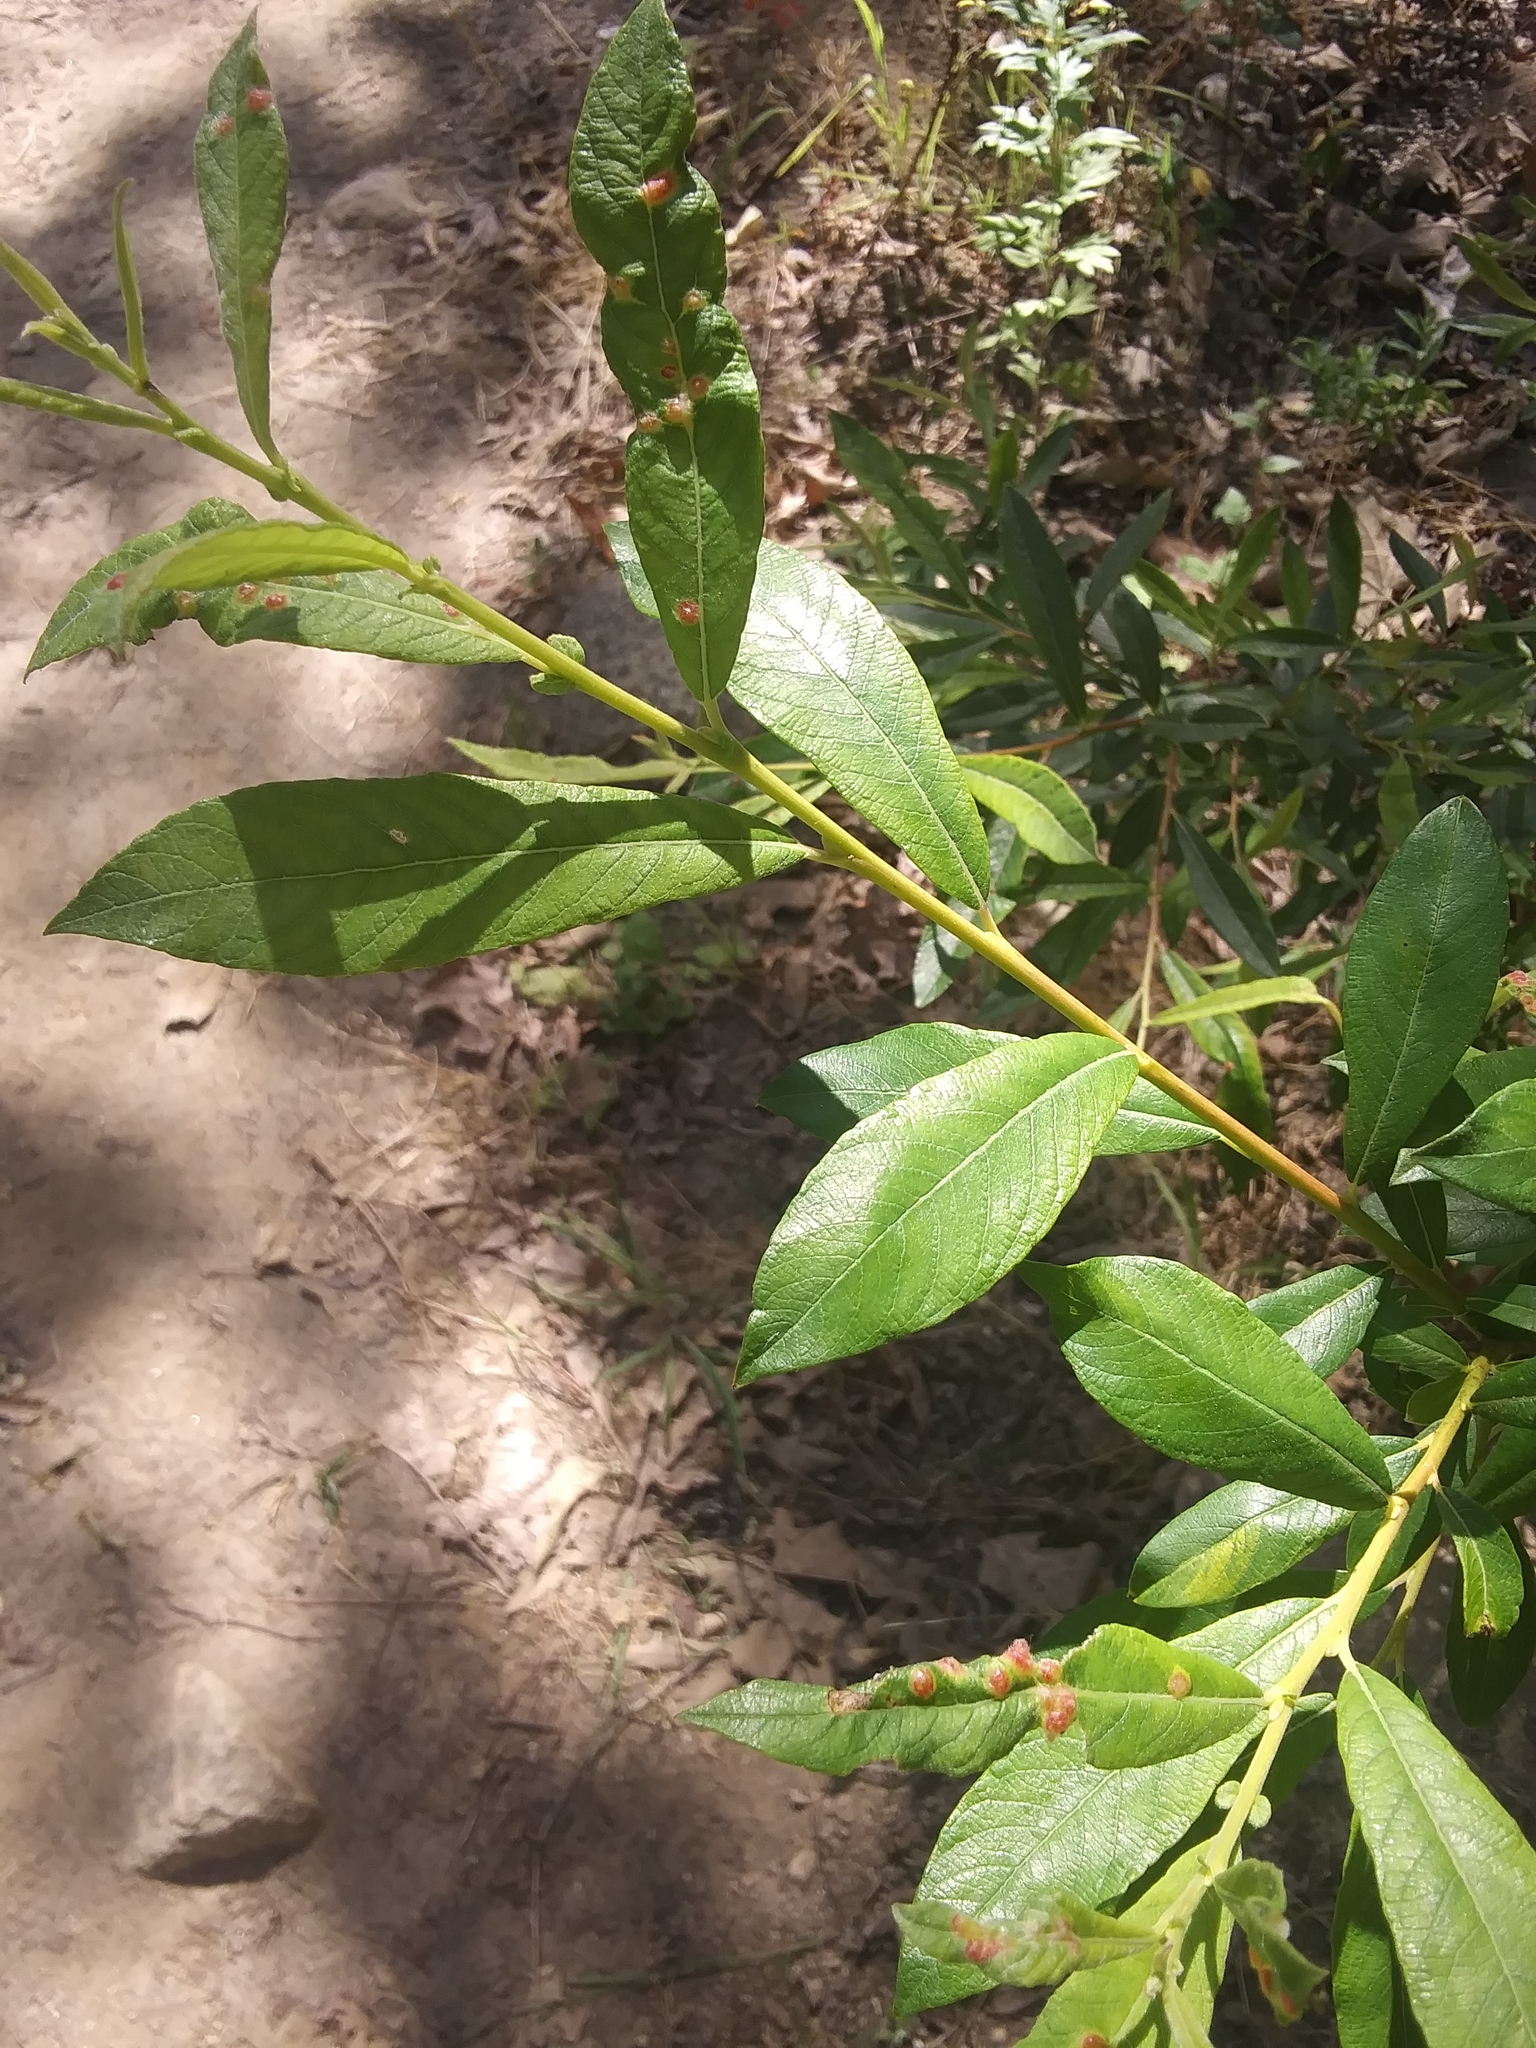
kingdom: Animalia
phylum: Arthropoda
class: Arachnida
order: Trombidiformes
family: Eriophyidae
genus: Aculus
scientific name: Aculus tetanothrix
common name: Willow bead gall mite
